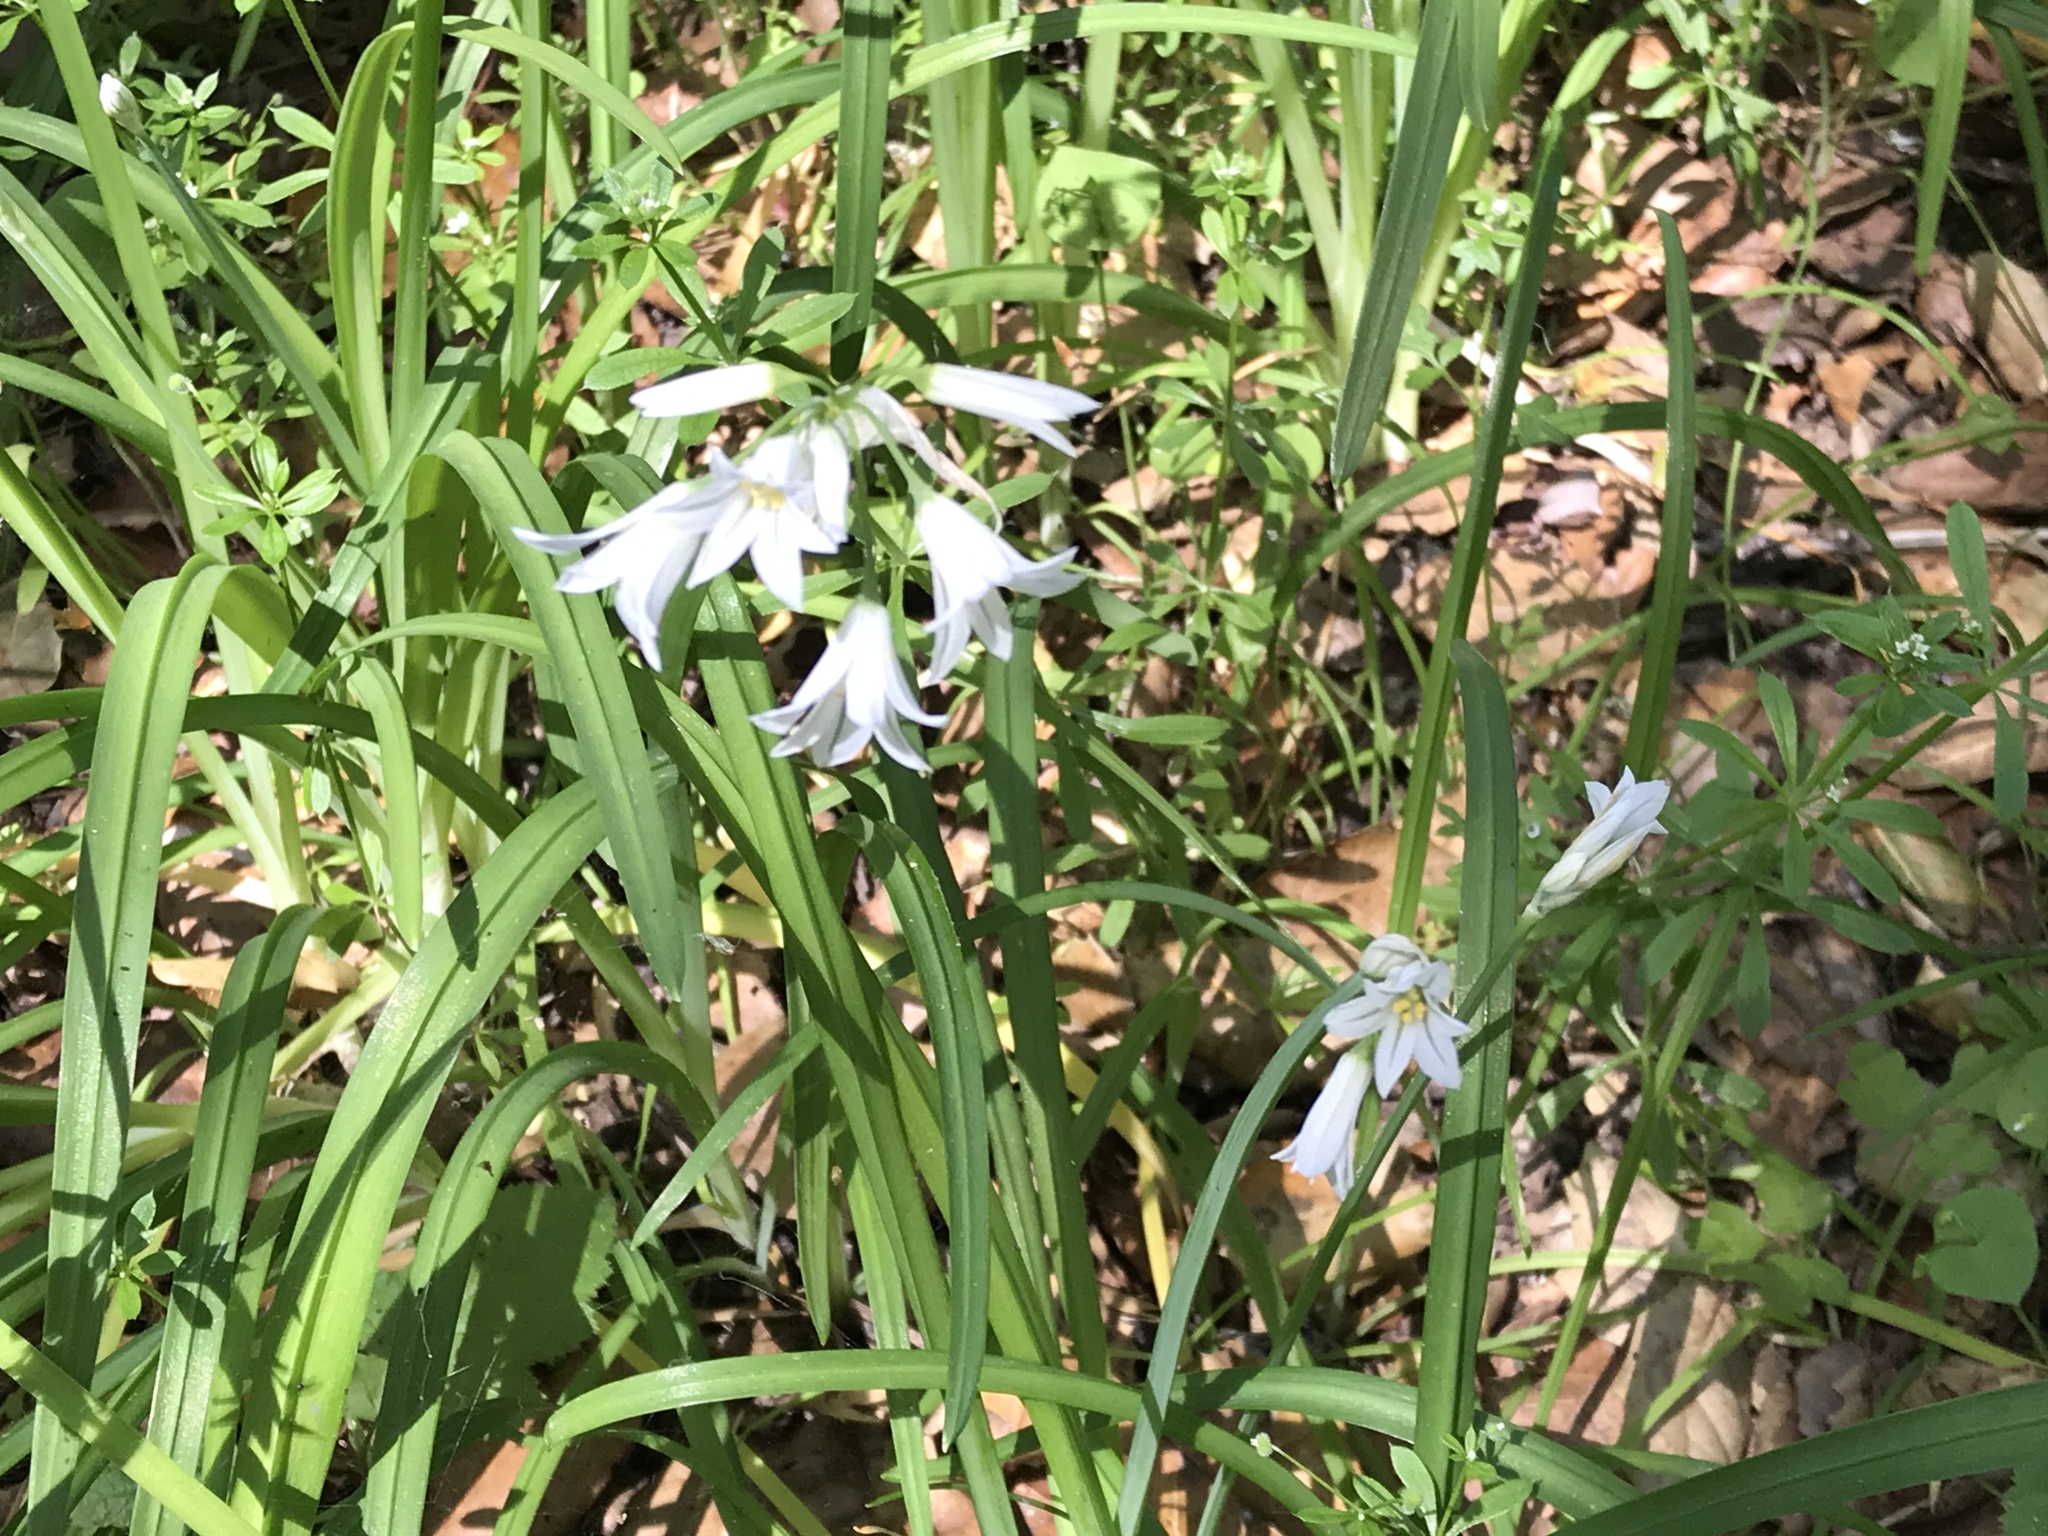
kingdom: Plantae
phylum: Tracheophyta
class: Liliopsida
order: Asparagales
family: Amaryllidaceae
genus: Allium
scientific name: Allium triquetrum
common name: Three-cornered garlic
